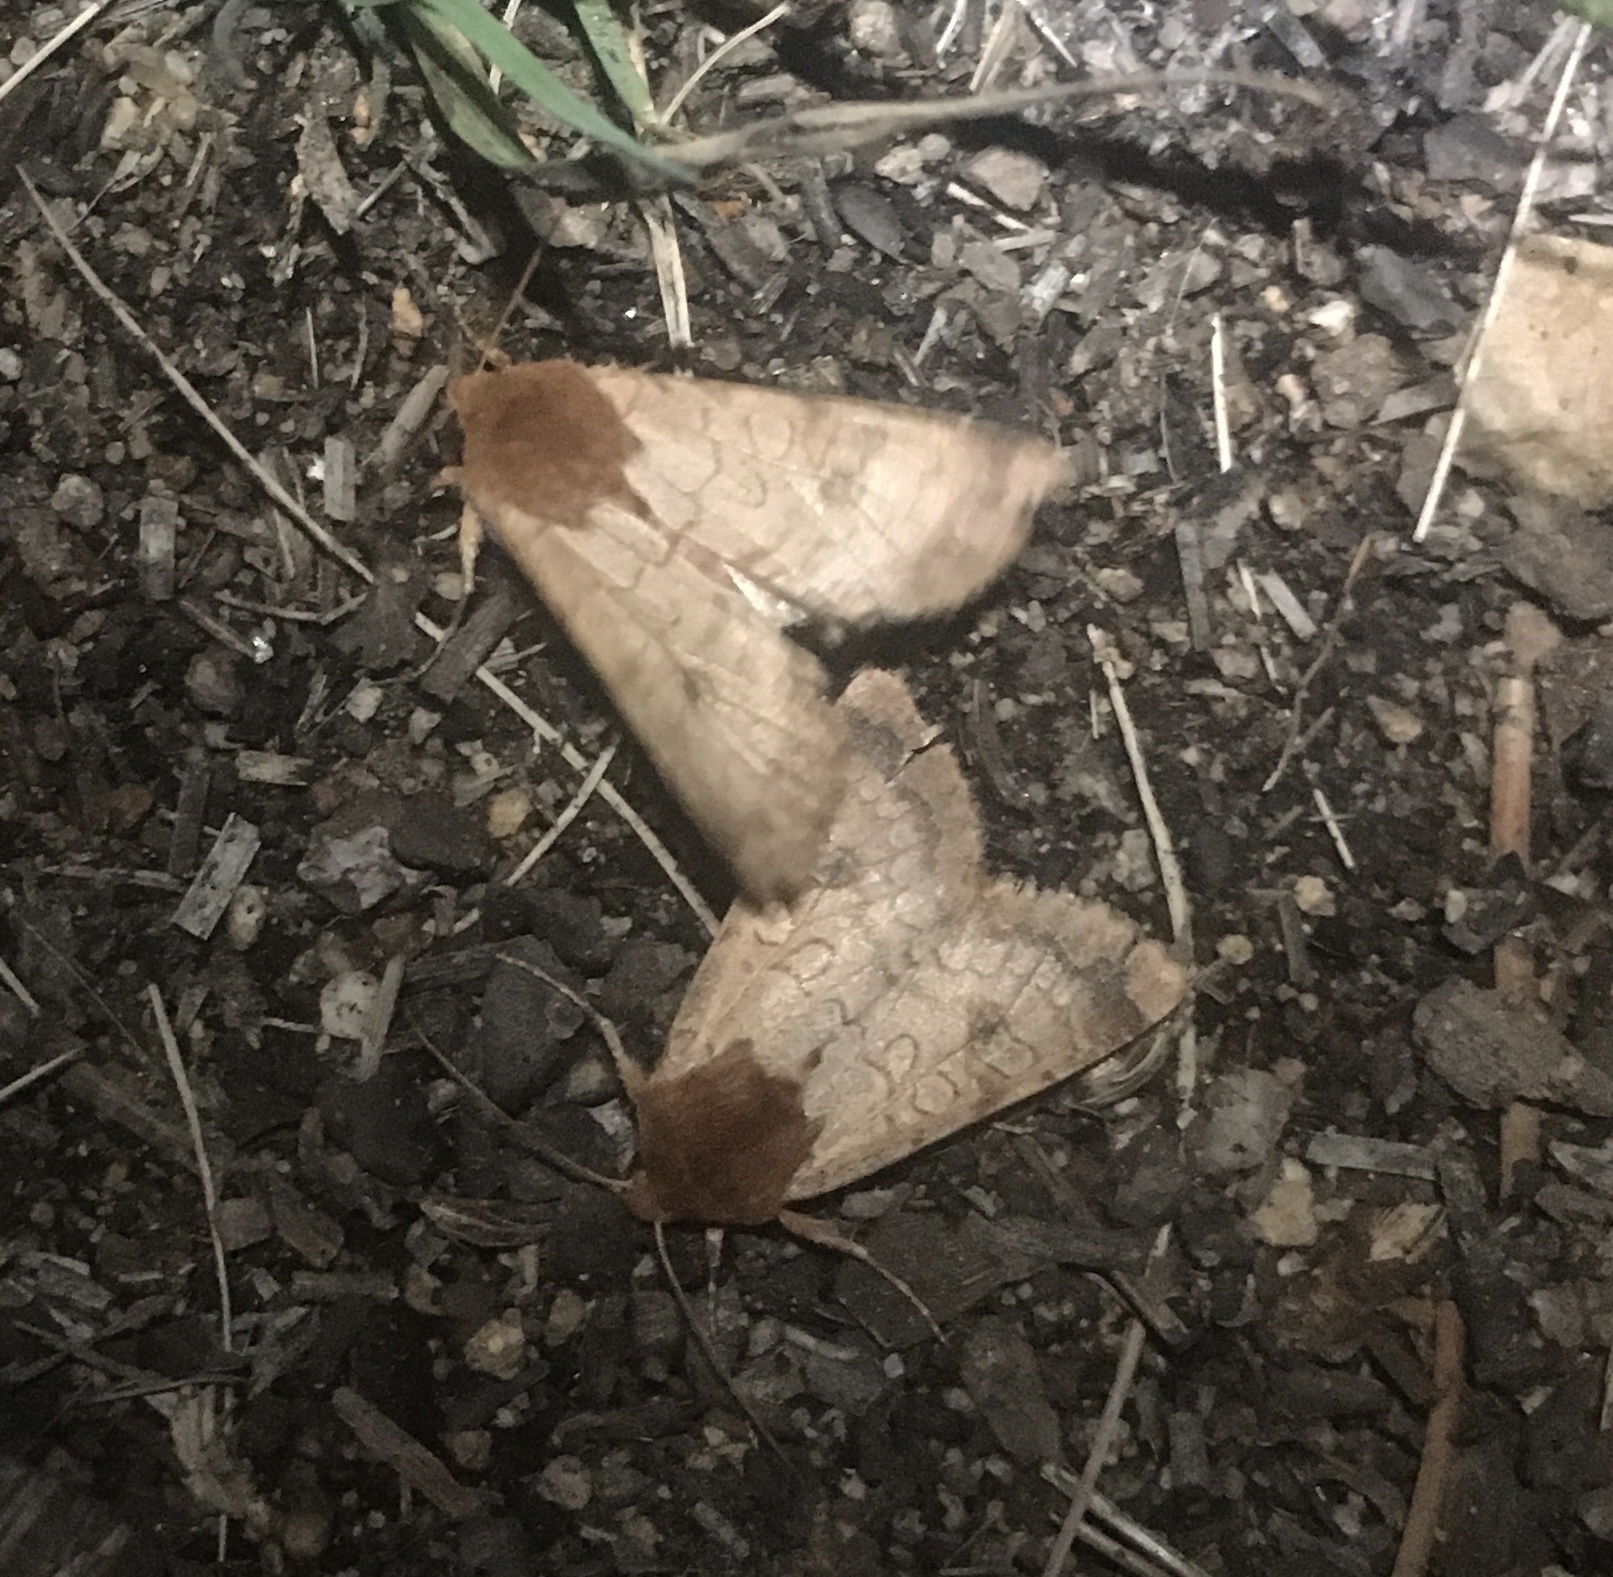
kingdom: Animalia
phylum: Arthropoda
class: Insecta
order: Lepidoptera
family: Noctuidae
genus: Sideridis
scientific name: Sideridis rosea
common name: Rosewing moth
